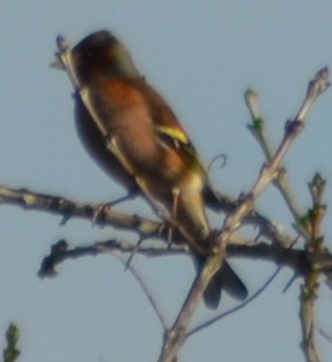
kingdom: Animalia
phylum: Chordata
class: Aves
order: Passeriformes
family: Fringillidae
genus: Fringilla
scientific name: Fringilla coelebs
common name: Common chaffinch
